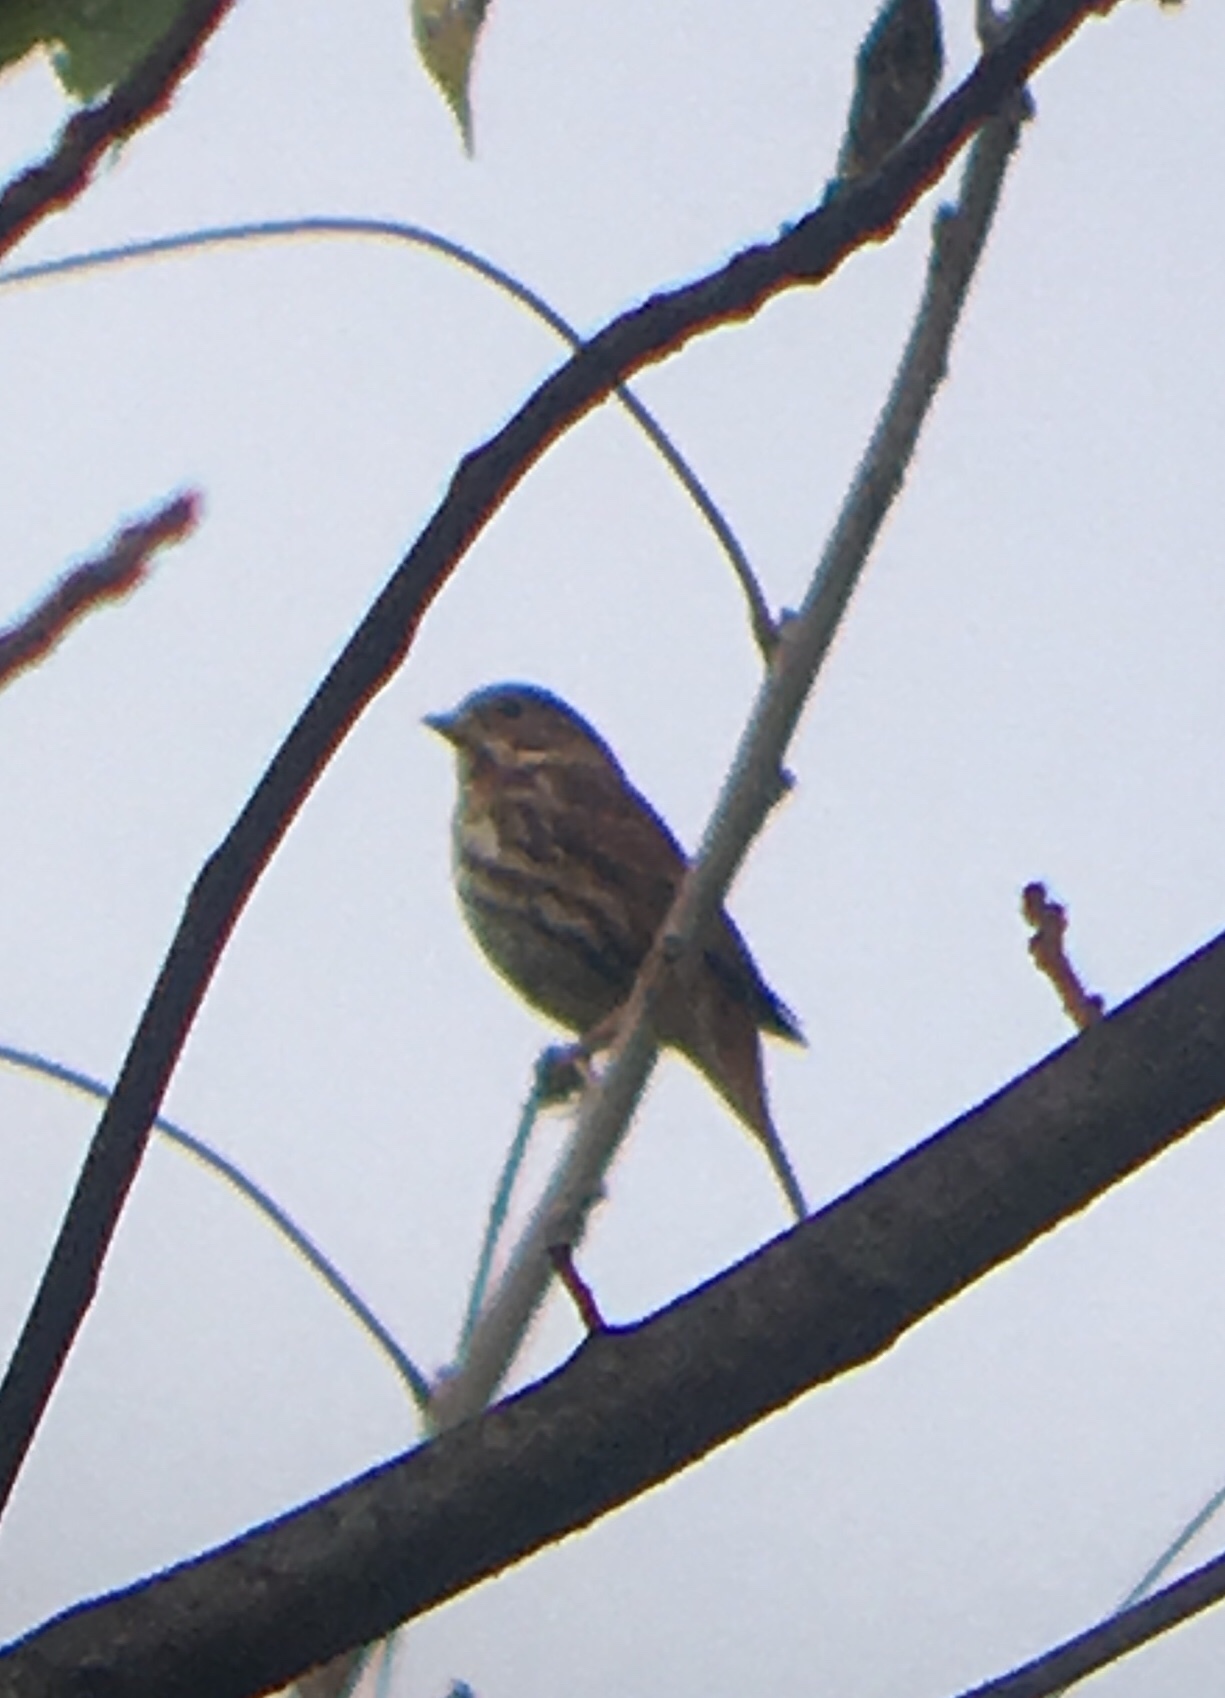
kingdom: Animalia
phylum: Chordata
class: Aves
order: Passeriformes
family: Passerellidae
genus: Passerella
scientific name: Passerella iliaca
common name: Fox sparrow
